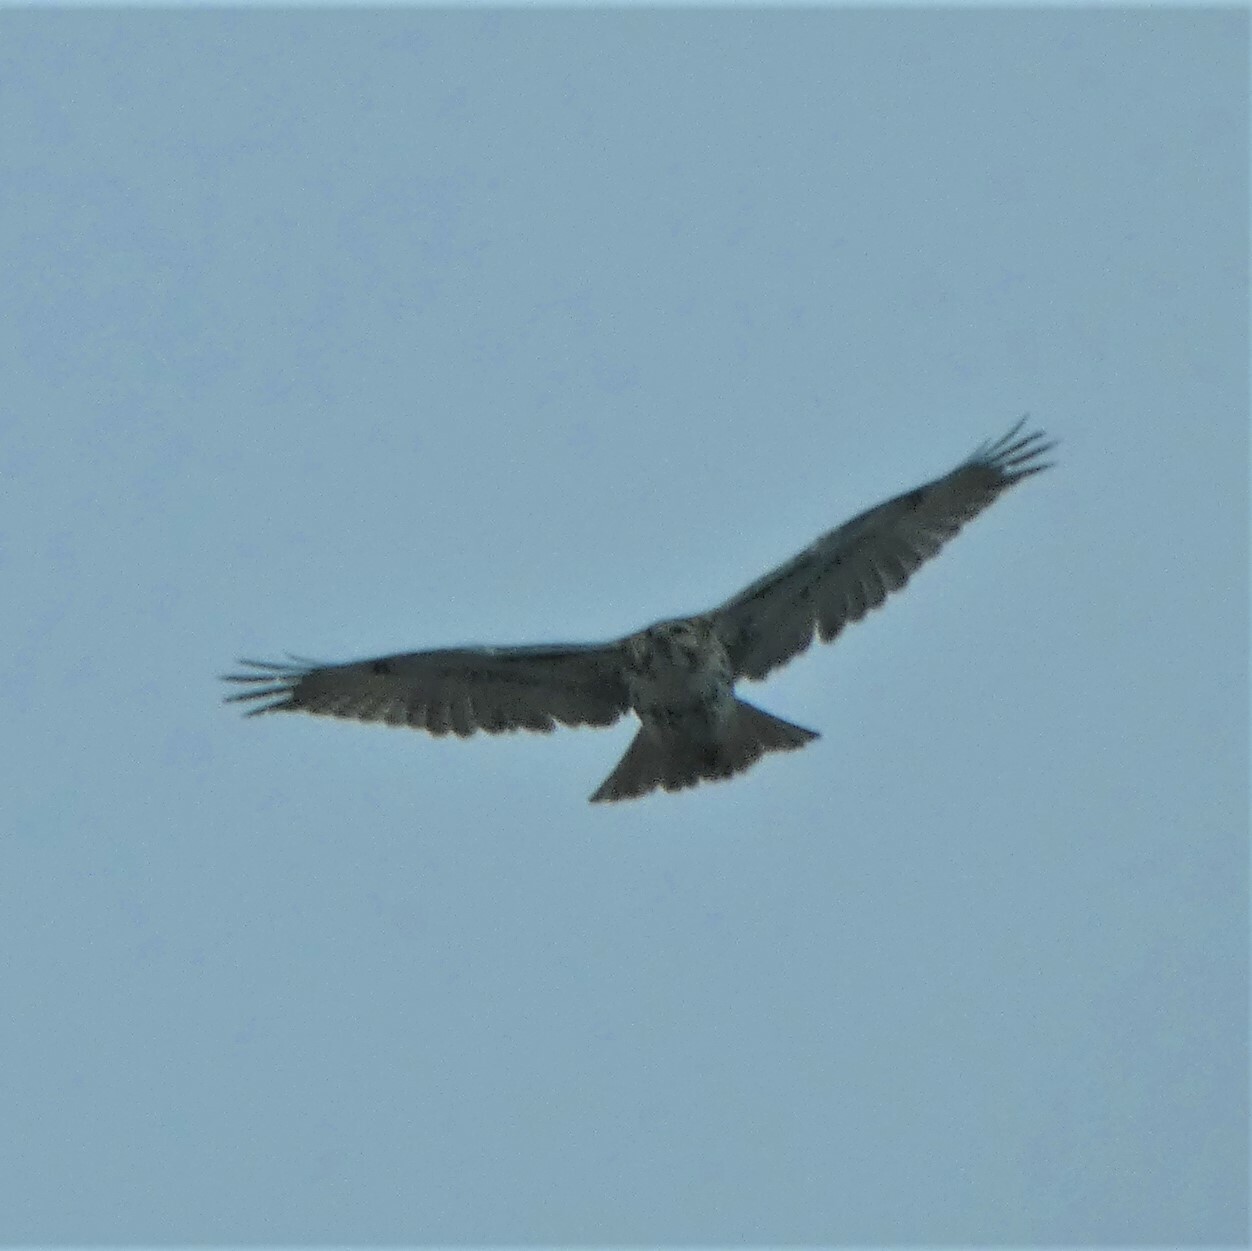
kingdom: Animalia
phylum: Chordata
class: Aves
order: Accipitriformes
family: Accipitridae
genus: Buteo
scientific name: Buteo jamaicensis
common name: Red-tailed hawk
